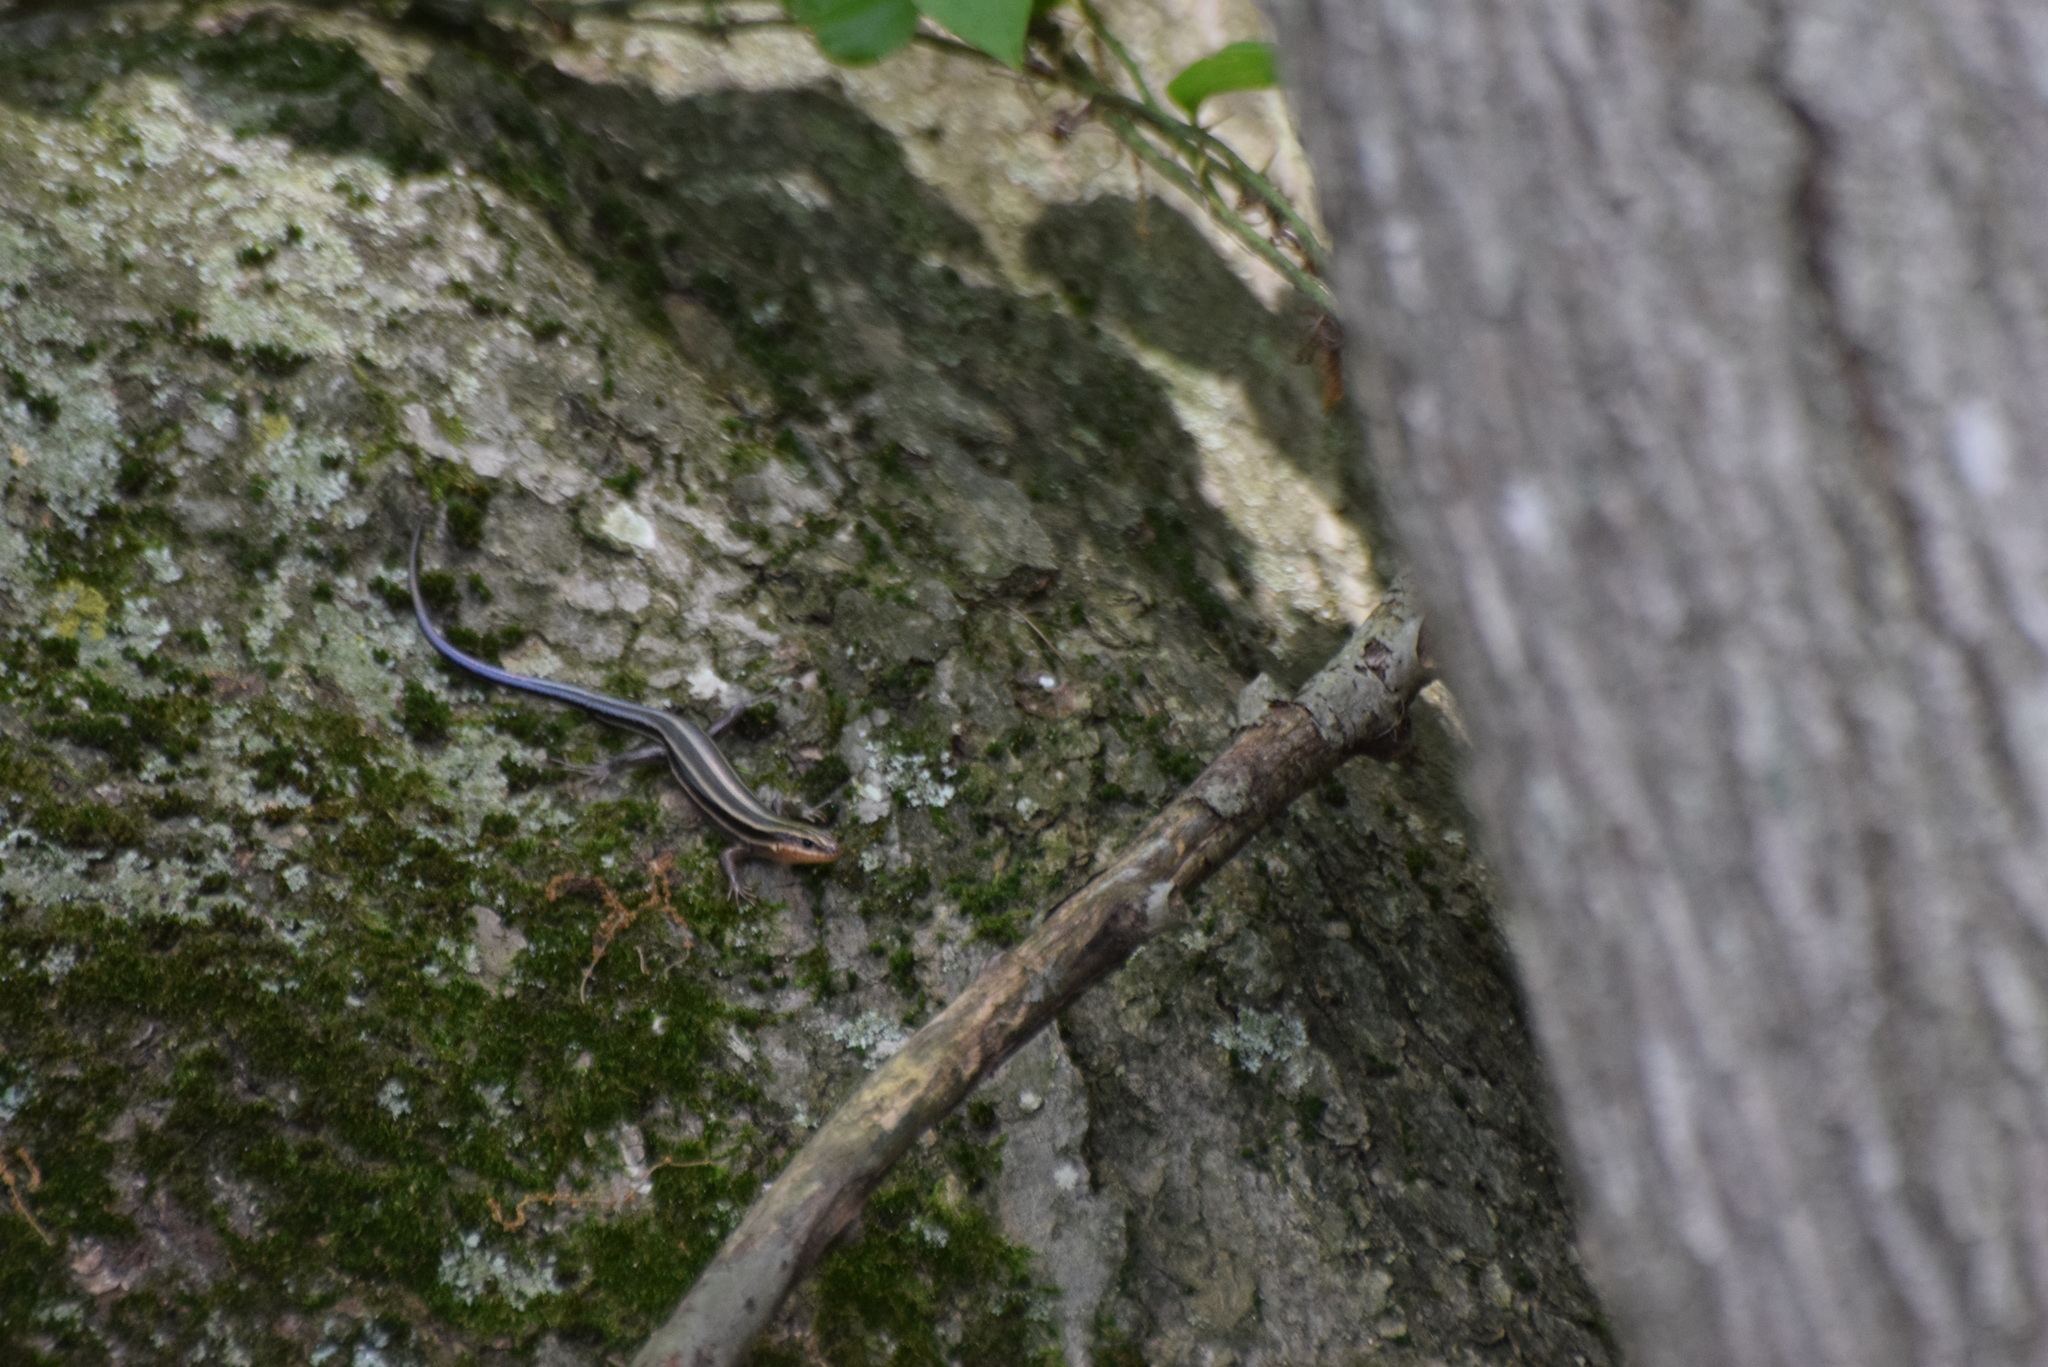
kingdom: Animalia
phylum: Chordata
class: Squamata
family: Scincidae
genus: Plestiodon
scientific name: Plestiodon fasciatus
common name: Five-lined skink
